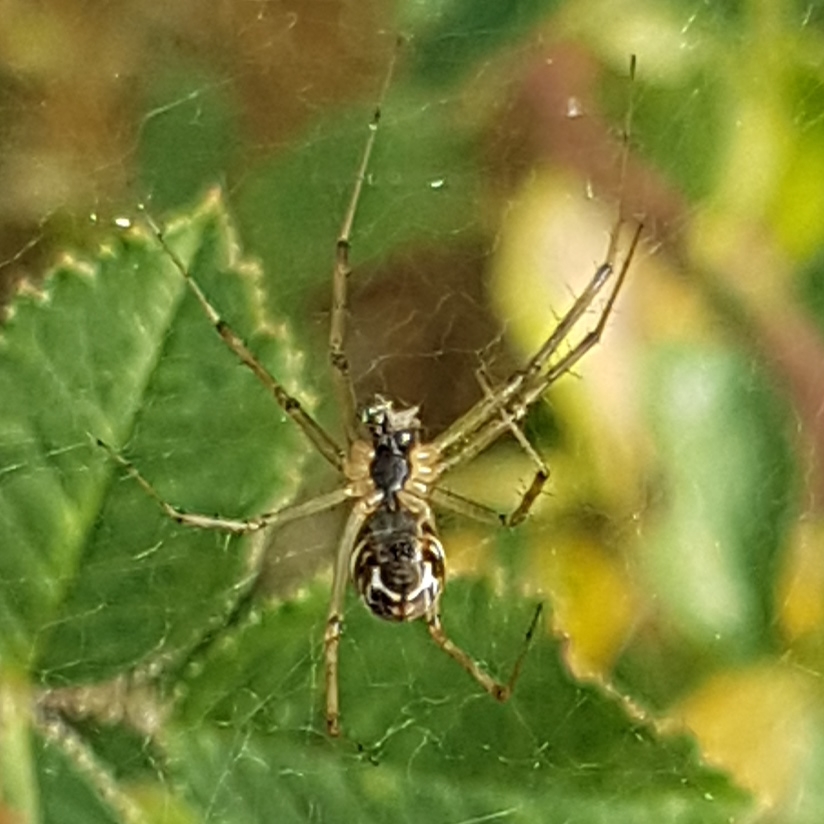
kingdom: Animalia
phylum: Arthropoda
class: Arachnida
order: Araneae
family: Linyphiidae
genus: Linyphia
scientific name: Linyphia triangularis
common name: Money spider
